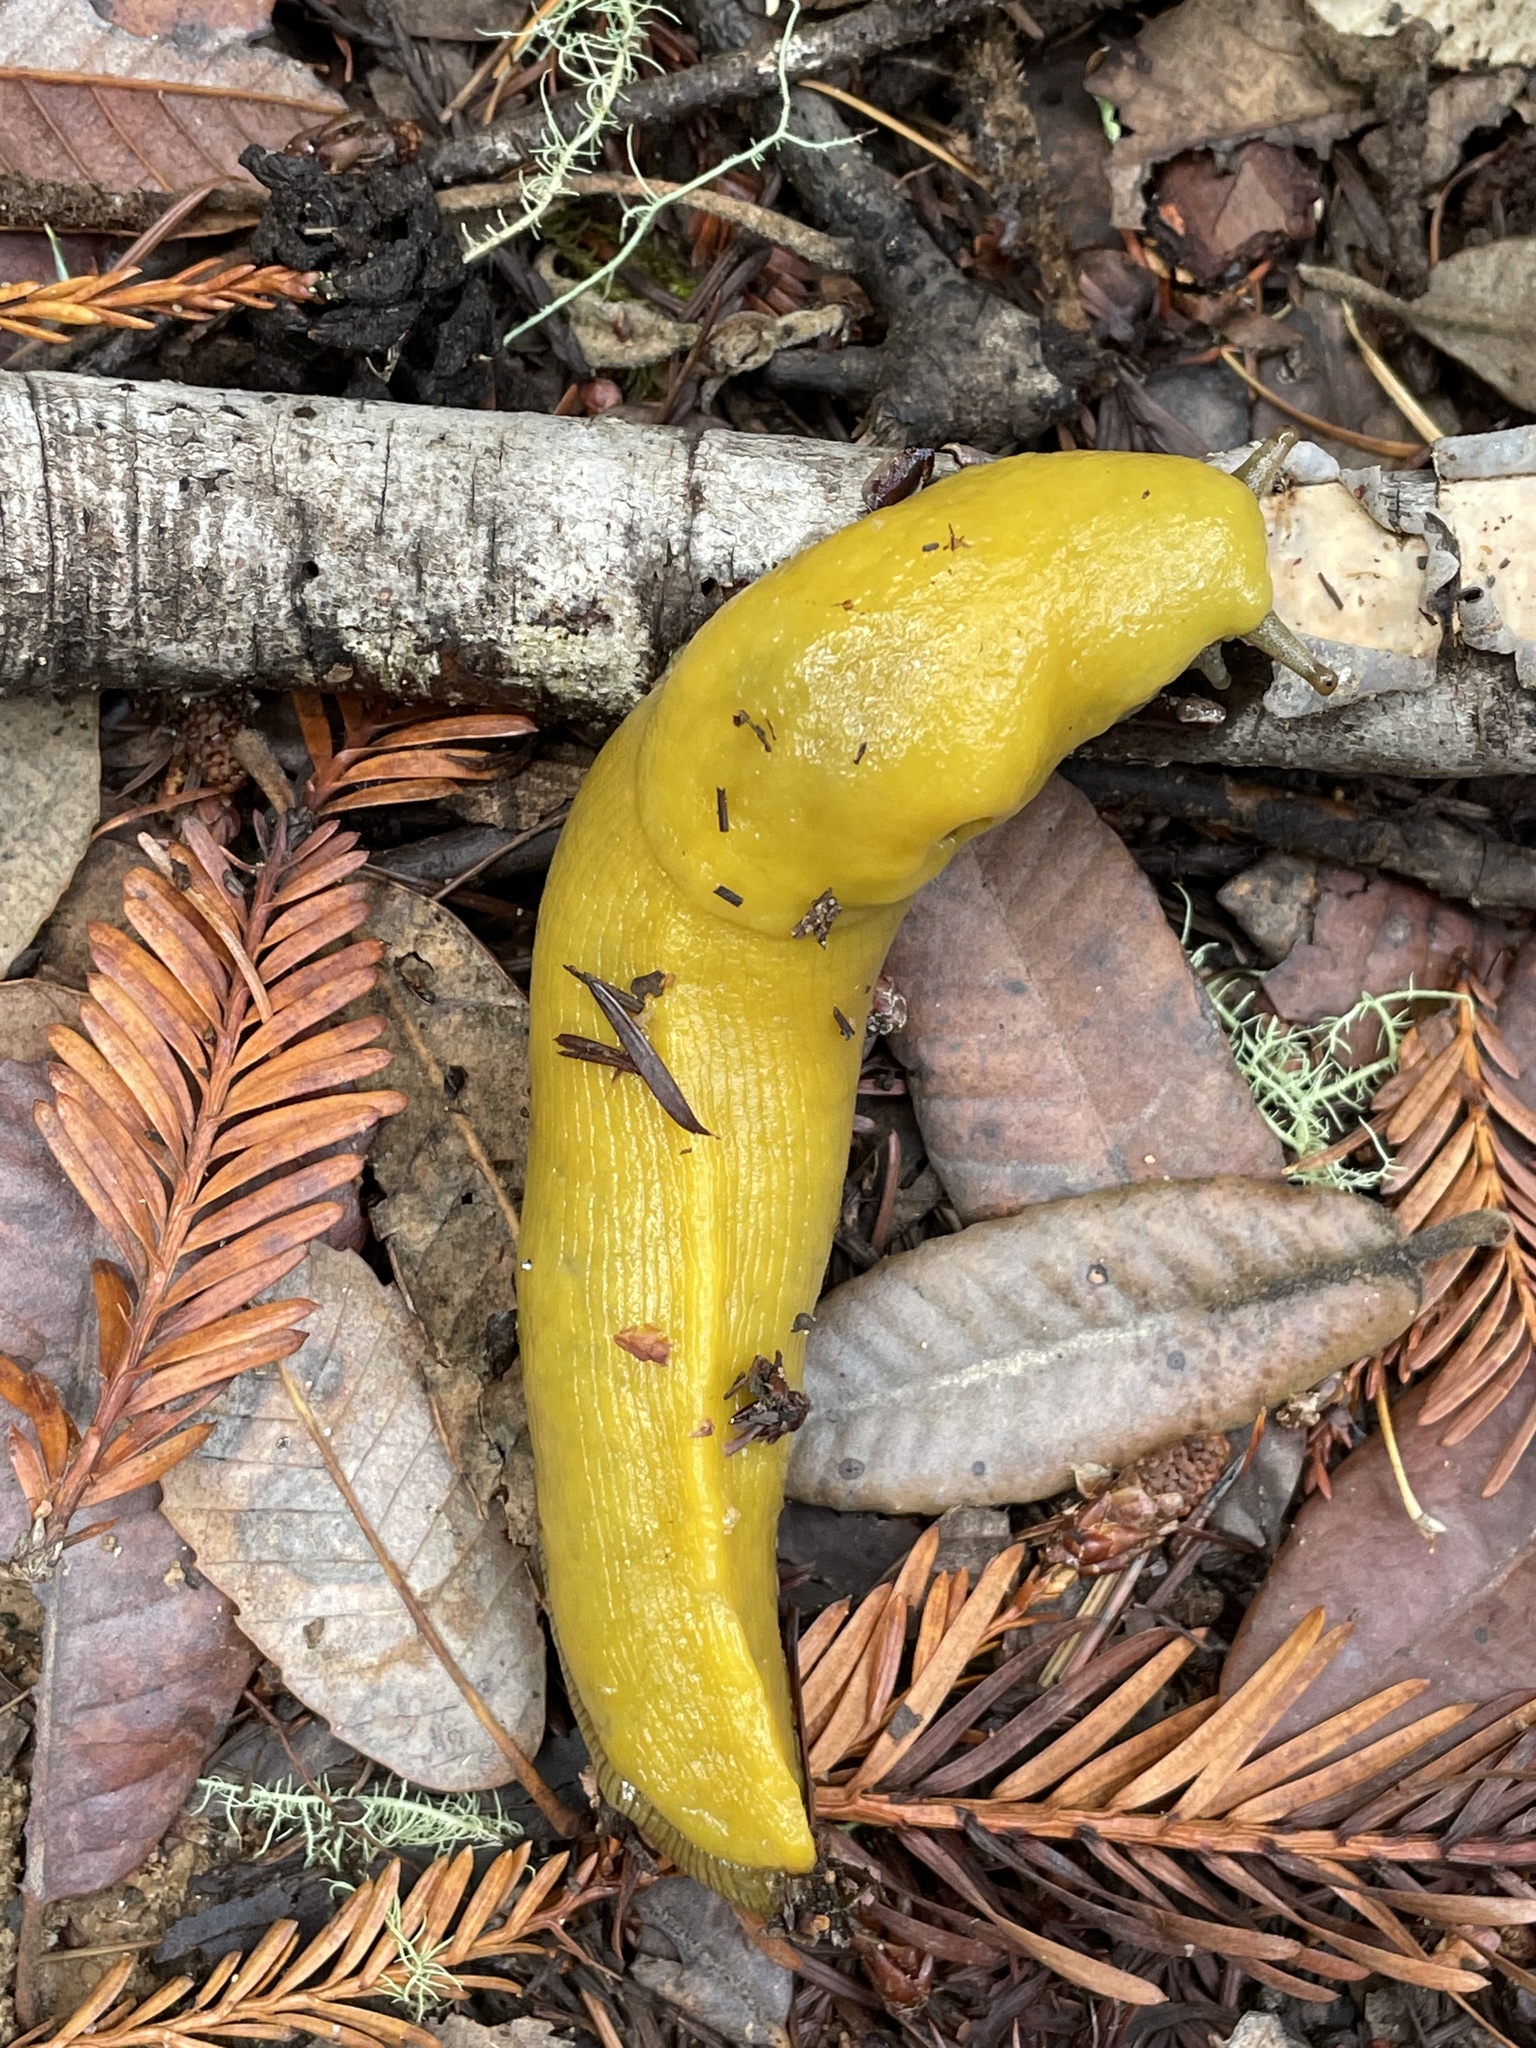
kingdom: Animalia
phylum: Mollusca
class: Gastropoda
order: Stylommatophora
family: Ariolimacidae
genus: Ariolimax
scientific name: Ariolimax californicus
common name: California banana slug
